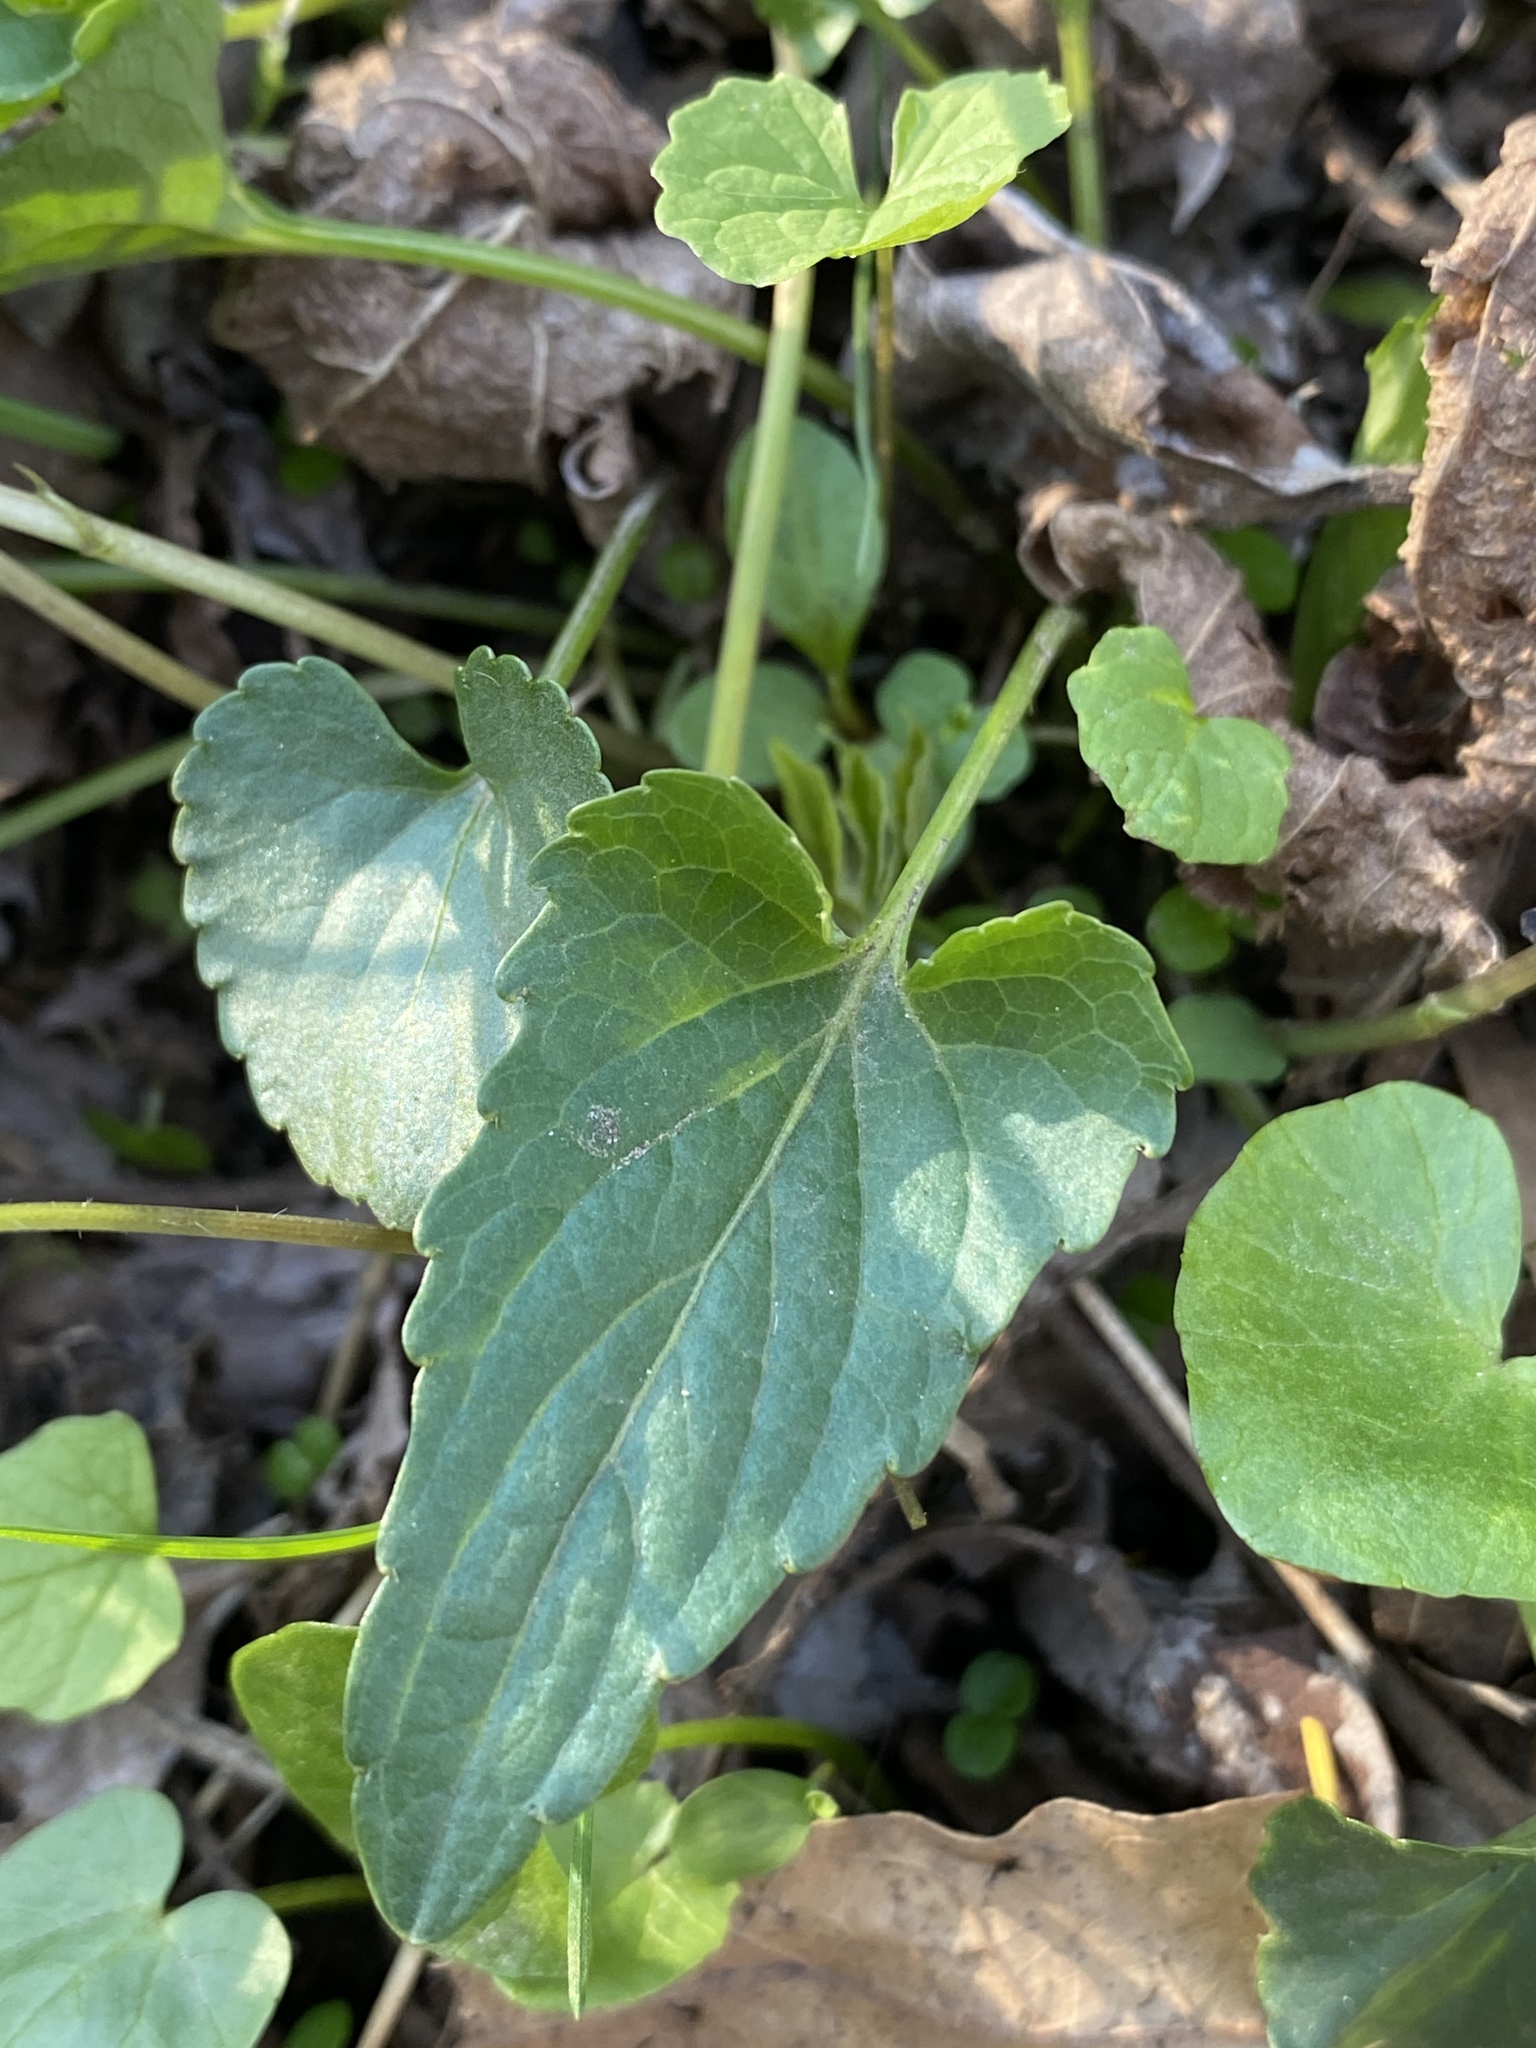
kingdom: Plantae
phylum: Tracheophyta
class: Magnoliopsida
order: Malpighiales
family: Violaceae
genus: Viola
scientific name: Viola sororia
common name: Dooryard violet
